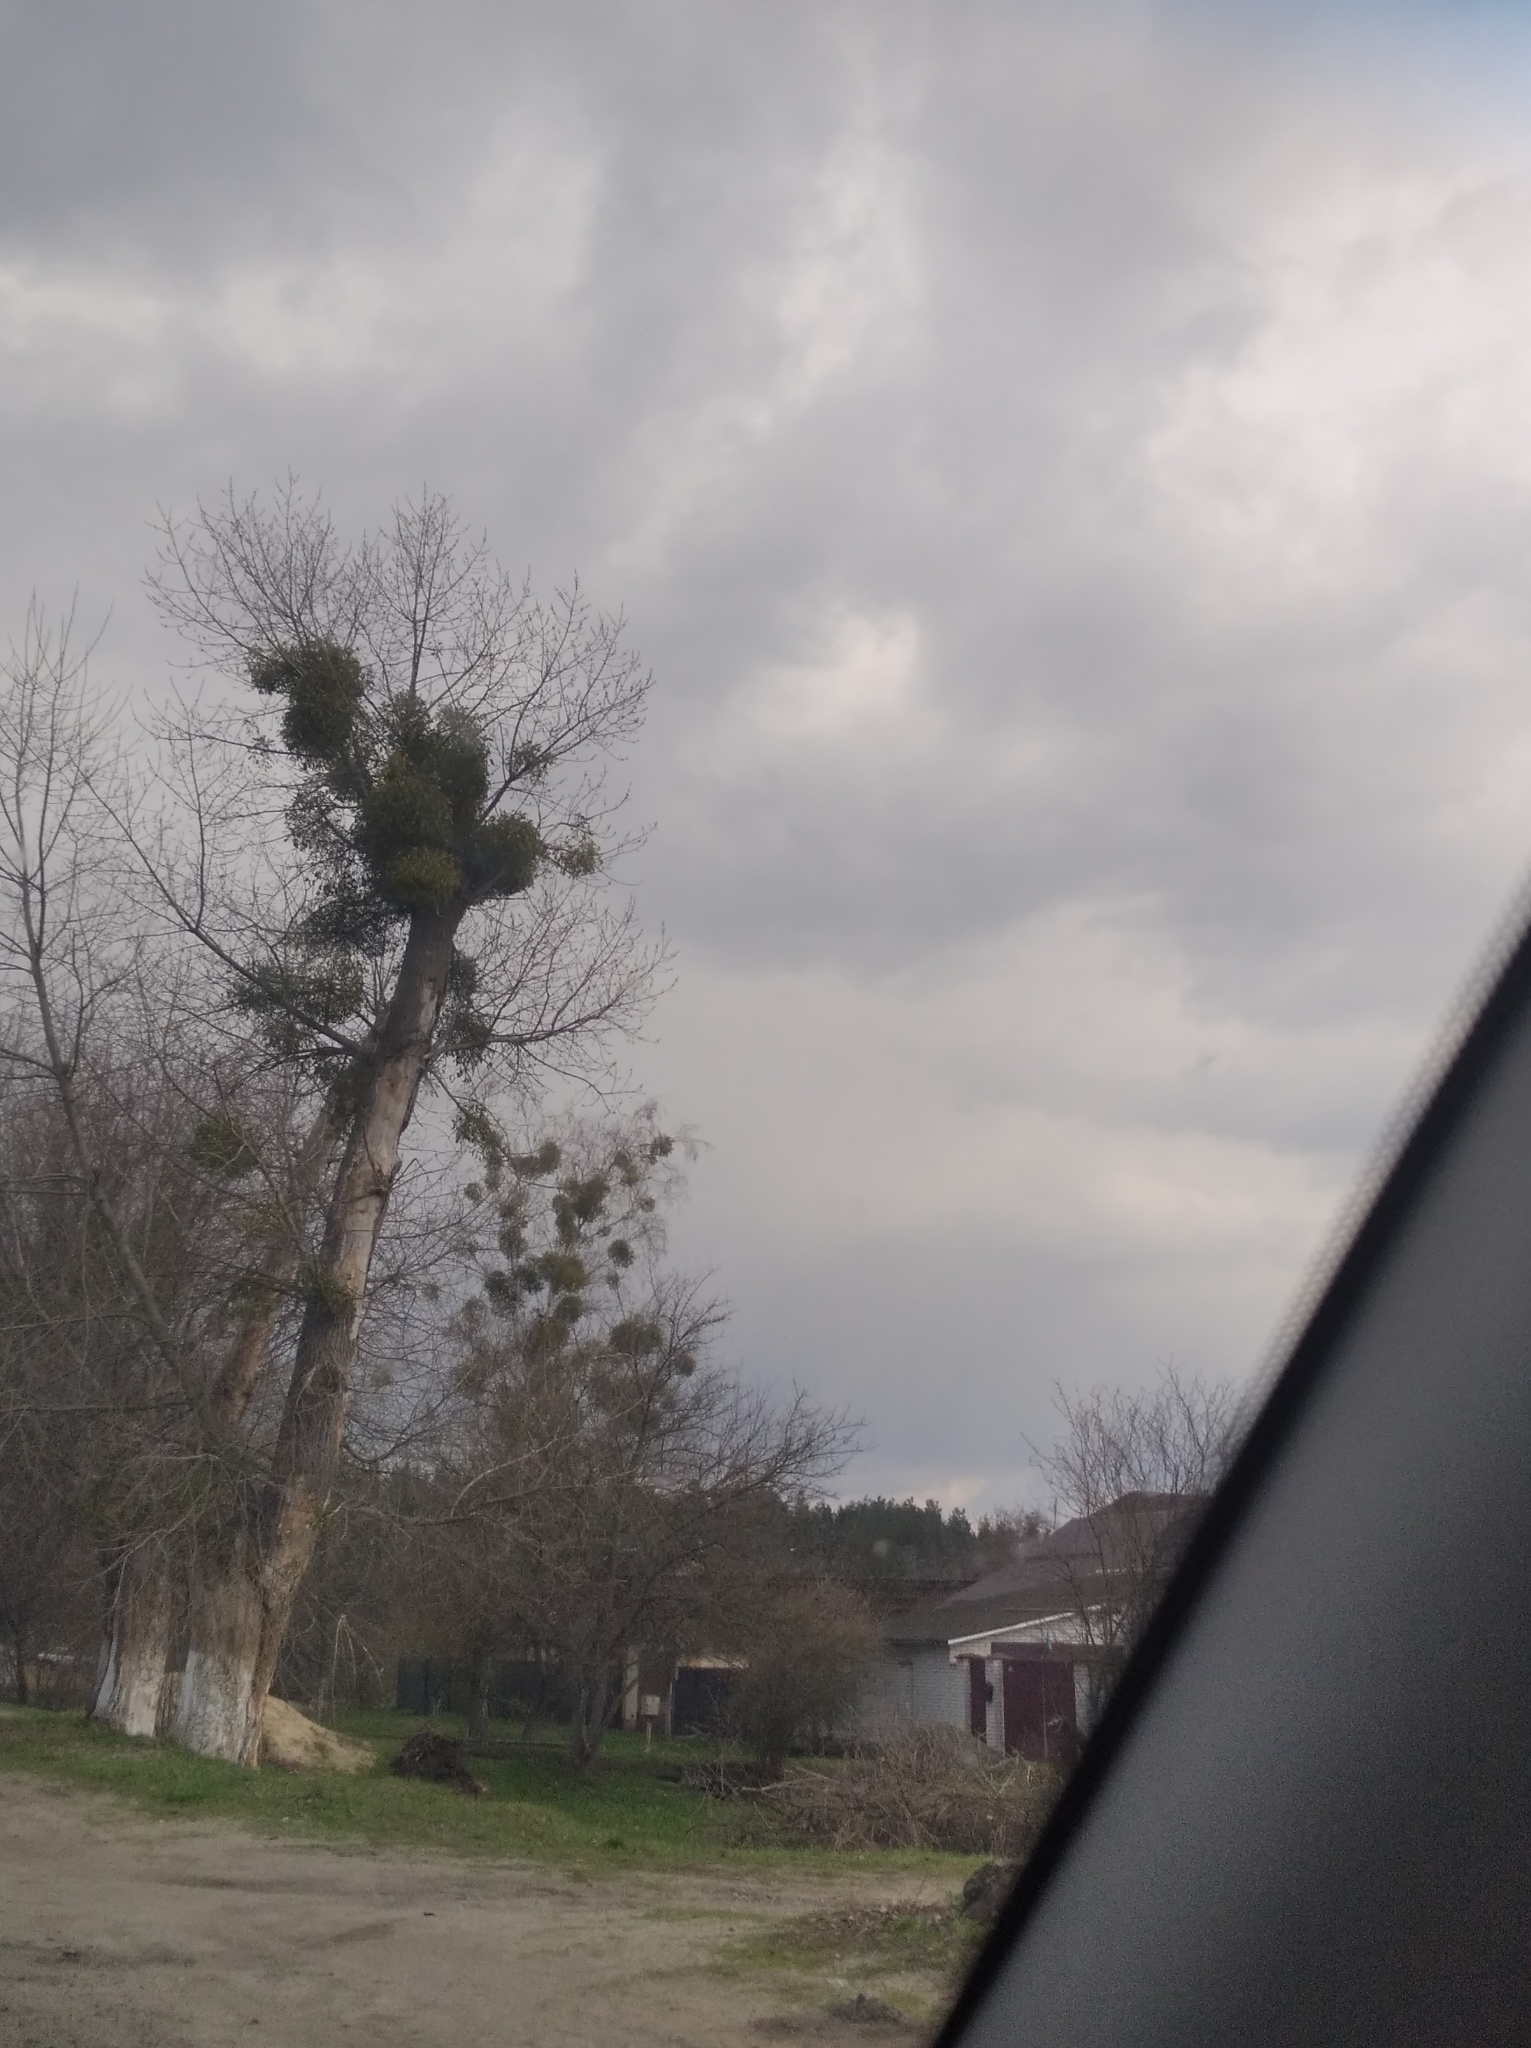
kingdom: Plantae
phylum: Tracheophyta
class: Magnoliopsida
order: Santalales
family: Viscaceae
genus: Viscum
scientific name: Viscum album
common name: Mistletoe
